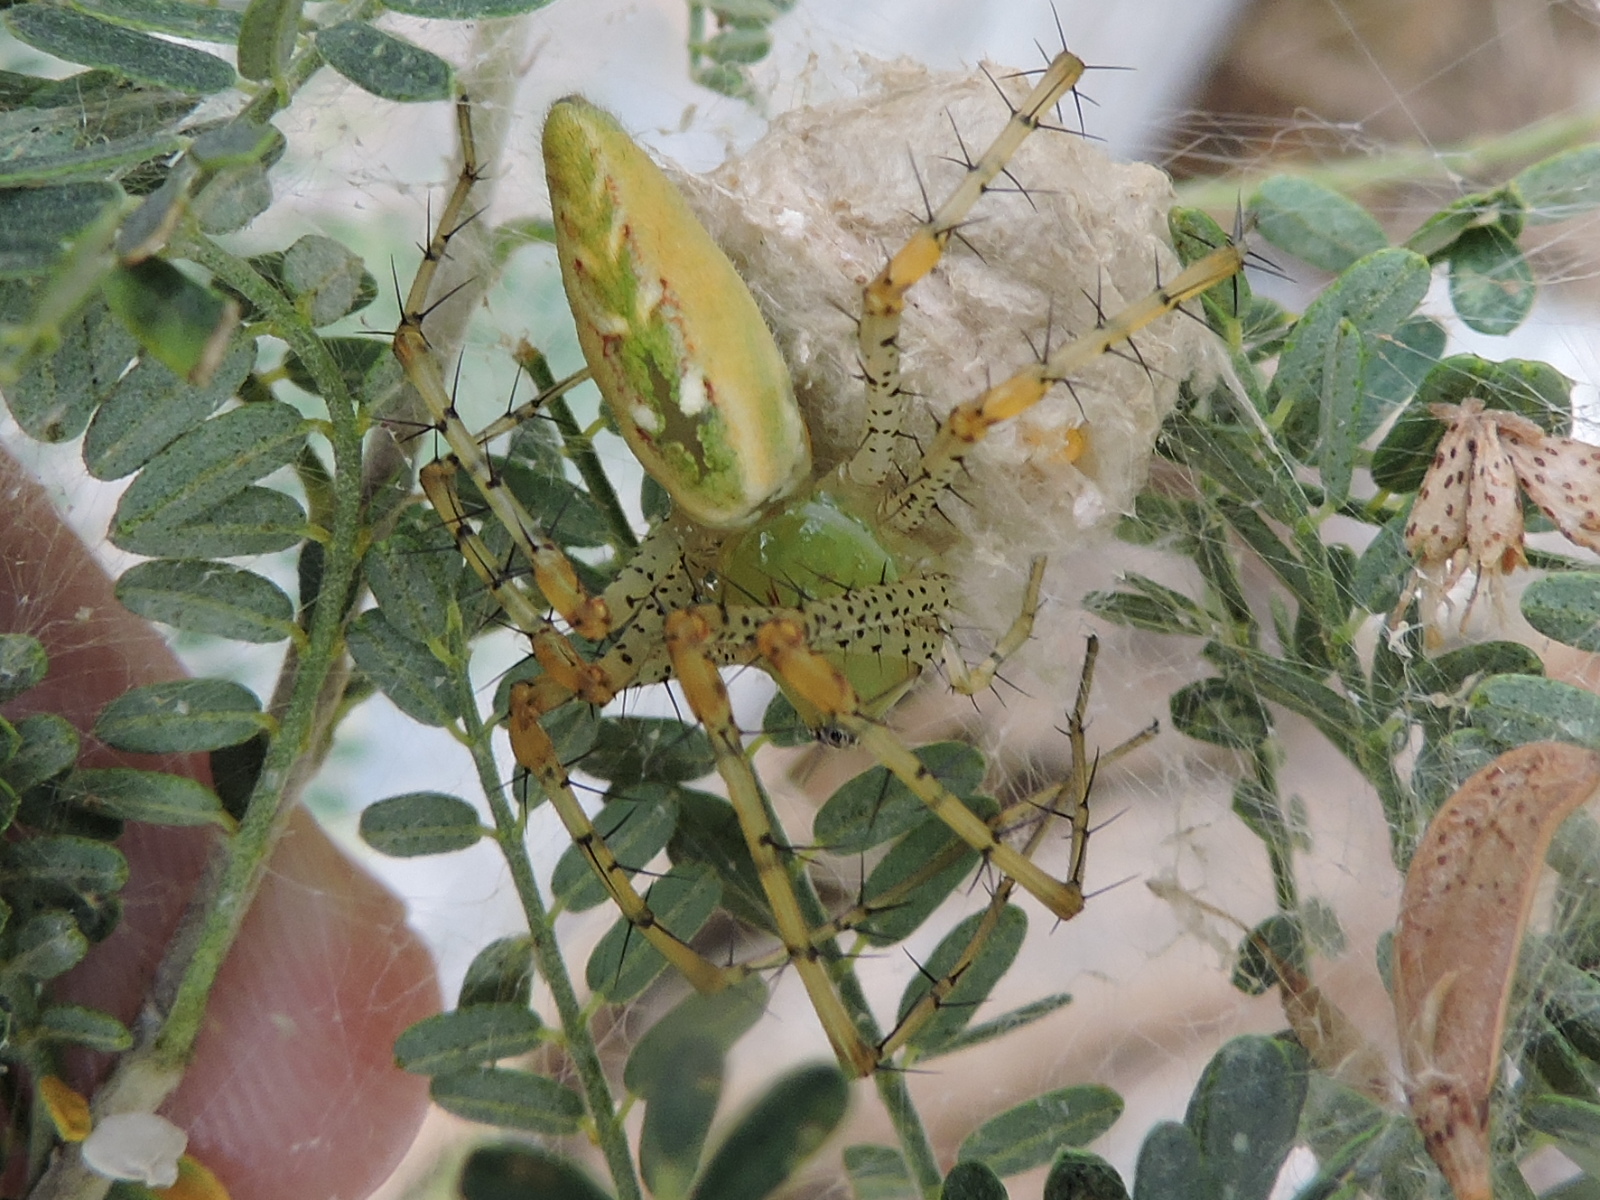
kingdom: Animalia
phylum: Arthropoda
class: Arachnida
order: Araneae
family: Oxyopidae
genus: Peucetia
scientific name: Peucetia viridans
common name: Lynx spiders
